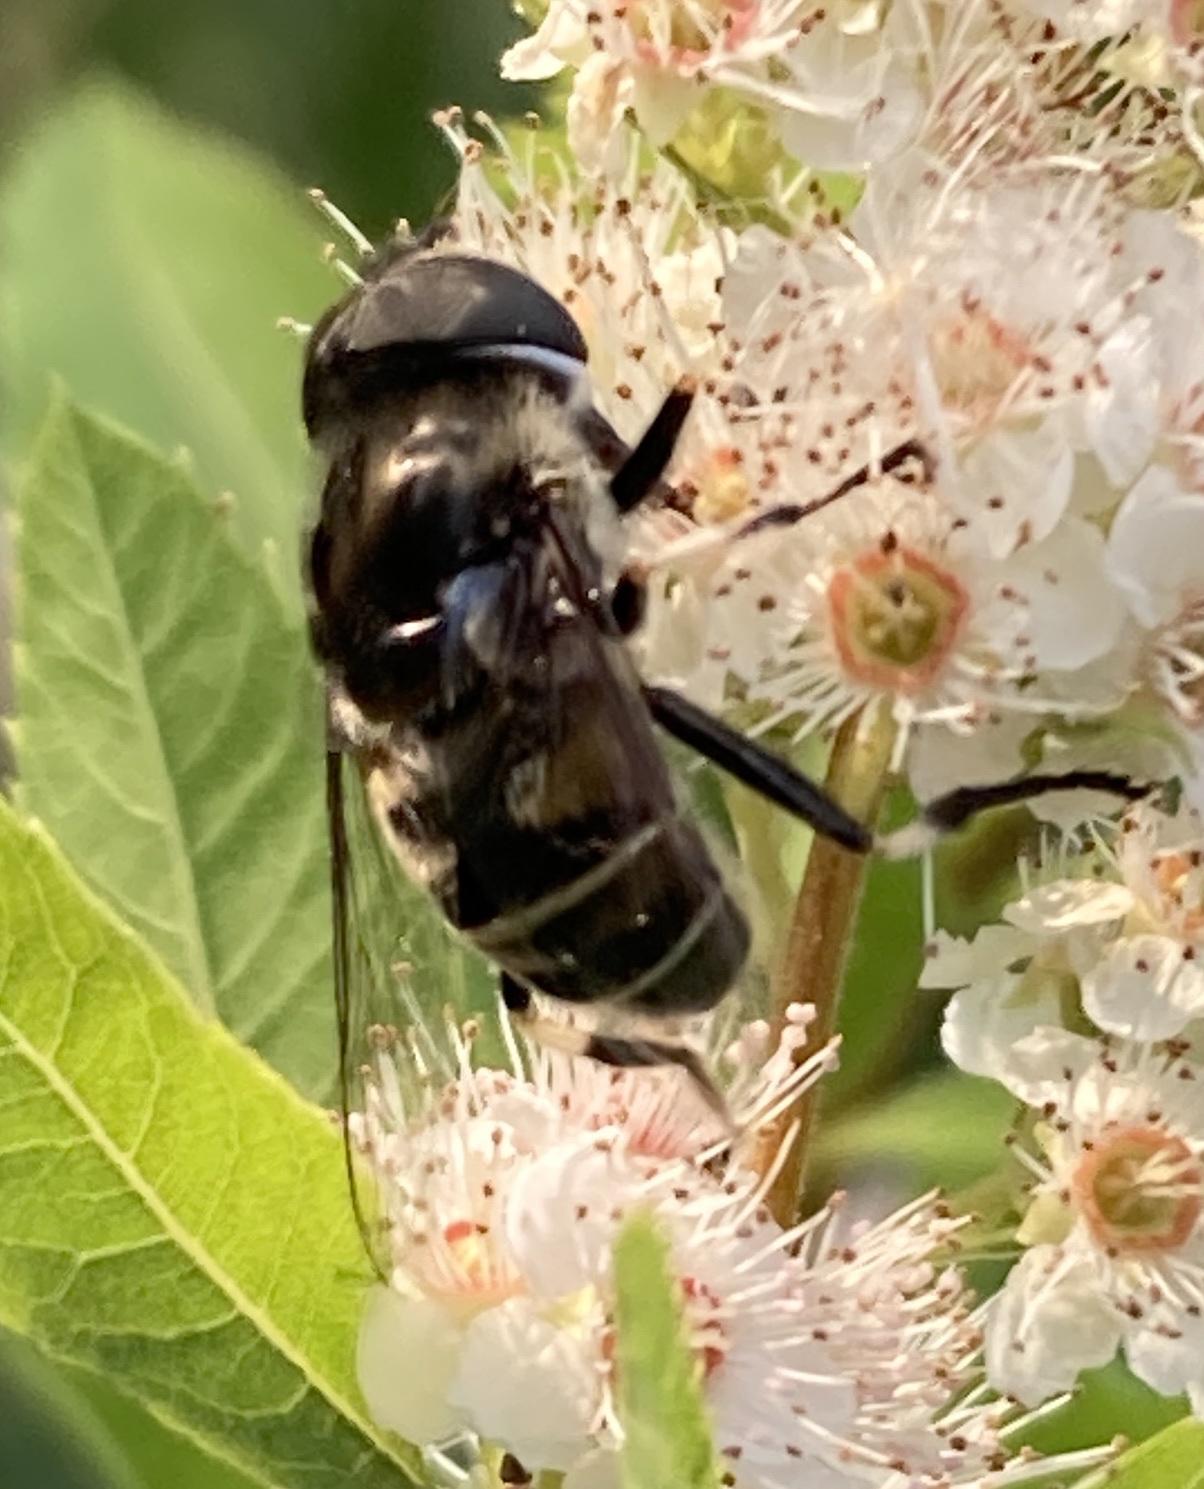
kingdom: Animalia
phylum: Arthropoda
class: Insecta
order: Diptera
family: Syrphidae
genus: Eristalis
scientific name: Eristalis dimidiata
